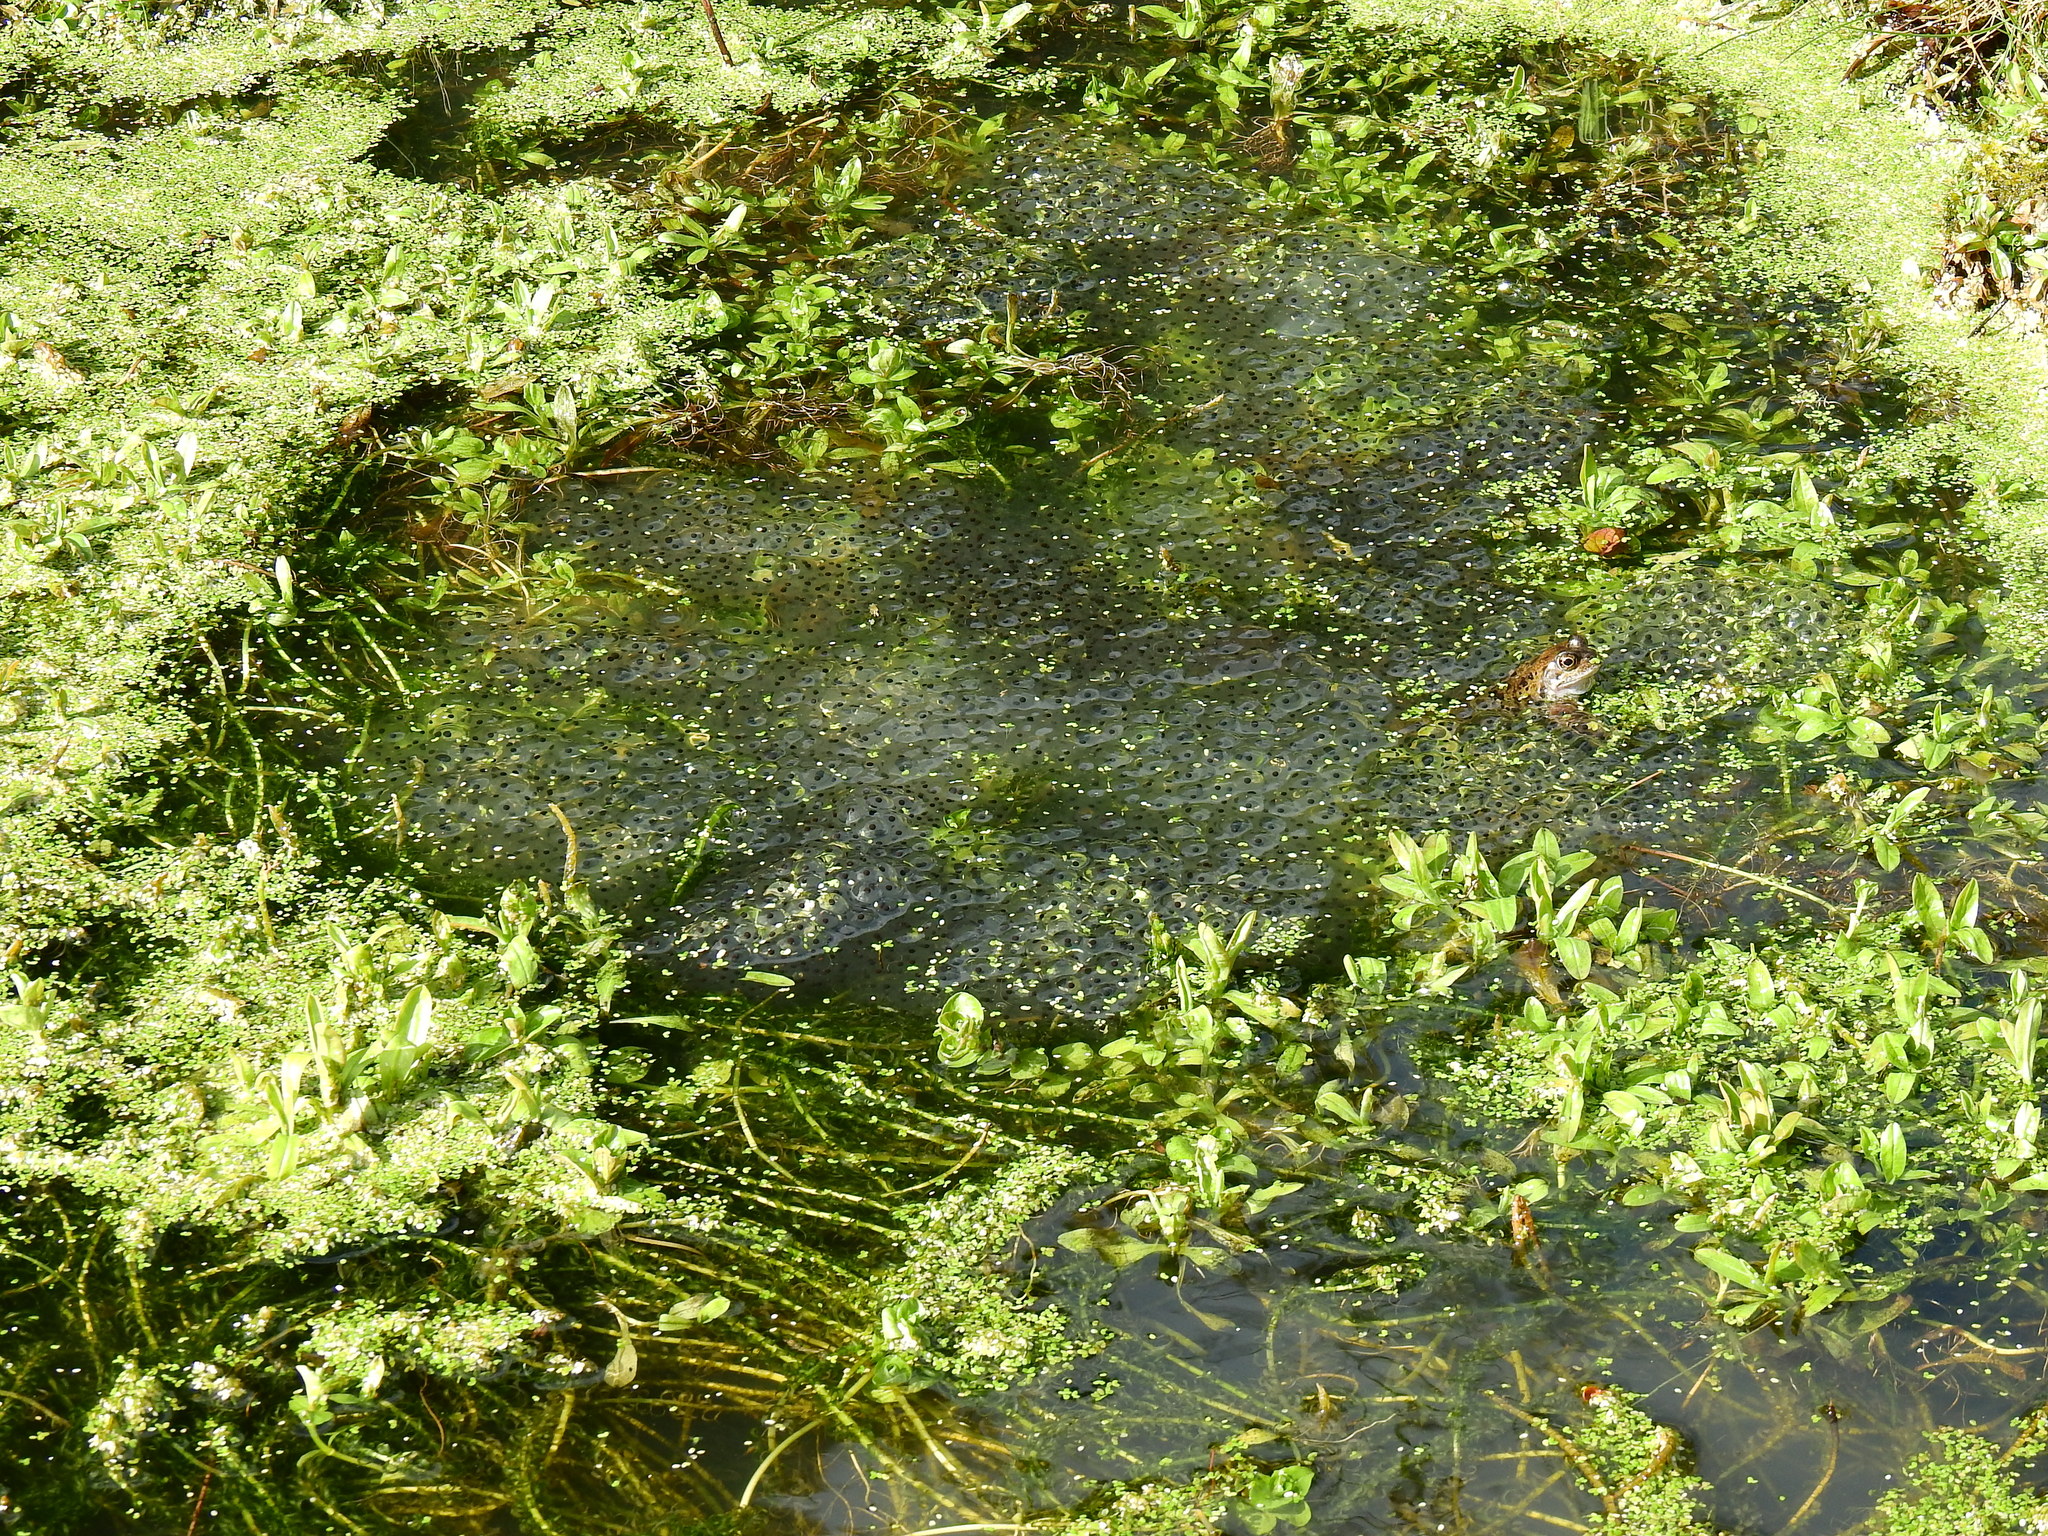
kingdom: Animalia
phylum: Chordata
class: Amphibia
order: Anura
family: Ranidae
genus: Rana
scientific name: Rana temporaria
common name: Common frog
